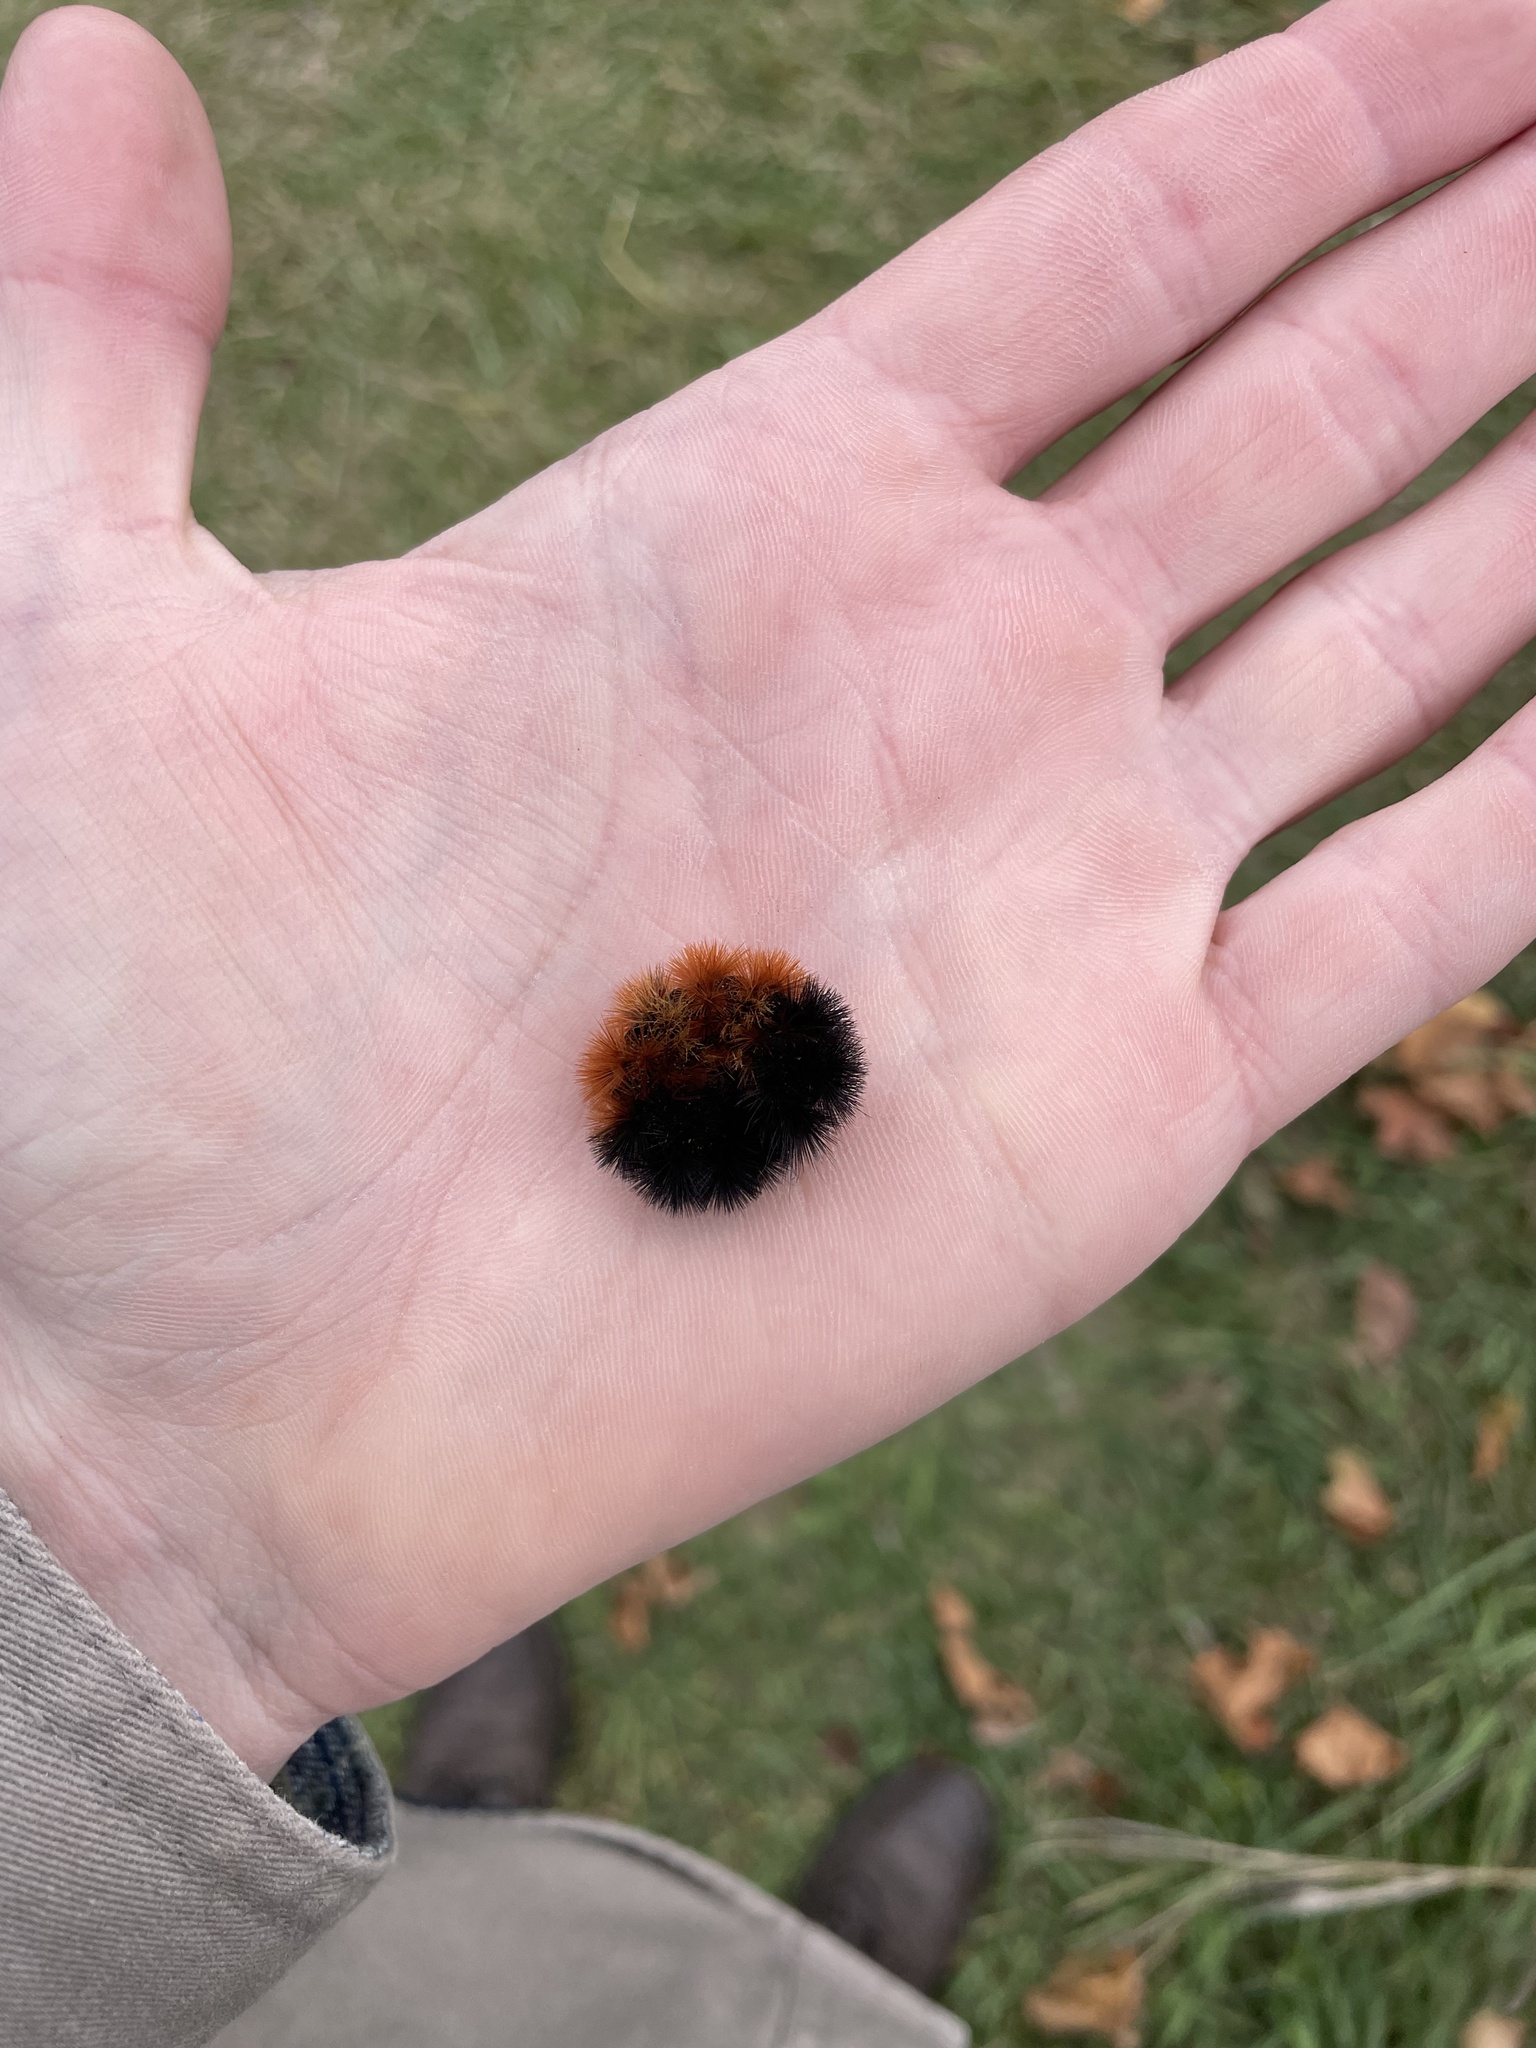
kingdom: Animalia
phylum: Arthropoda
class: Insecta
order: Lepidoptera
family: Erebidae
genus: Pyrrharctia
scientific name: Pyrrharctia isabella
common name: Isabella tiger moth
